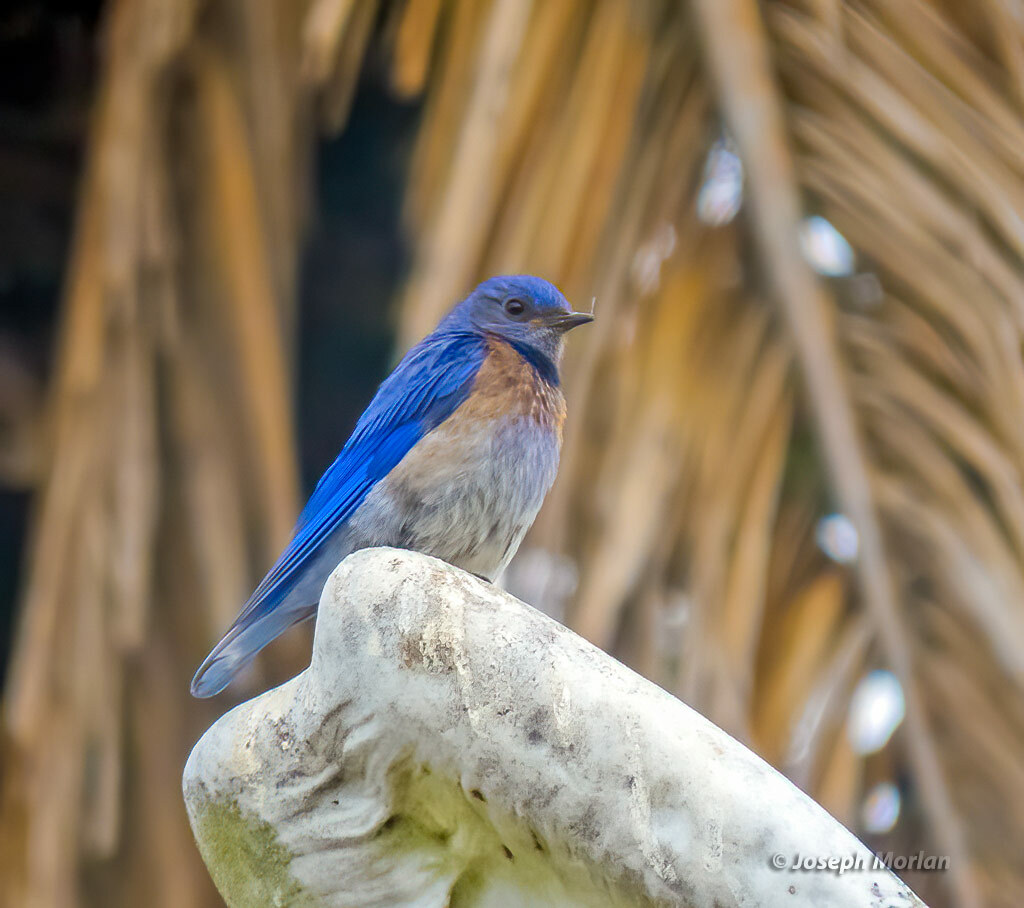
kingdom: Animalia
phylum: Chordata
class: Aves
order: Passeriformes
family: Turdidae
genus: Sialia
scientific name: Sialia mexicana
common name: Western bluebird
